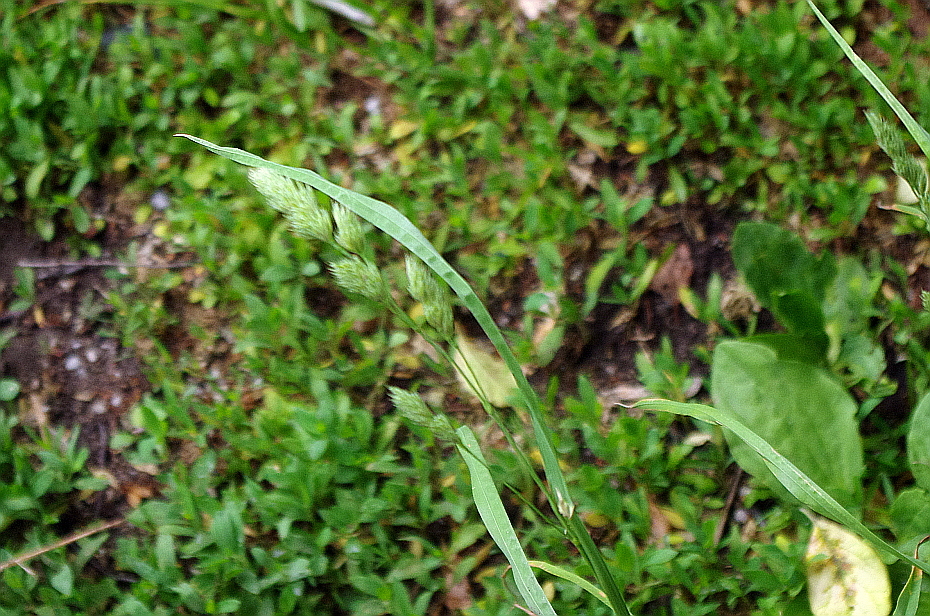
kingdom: Plantae
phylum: Tracheophyta
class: Liliopsida
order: Poales
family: Poaceae
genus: Dactylis
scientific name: Dactylis glomerata
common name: Orchardgrass
